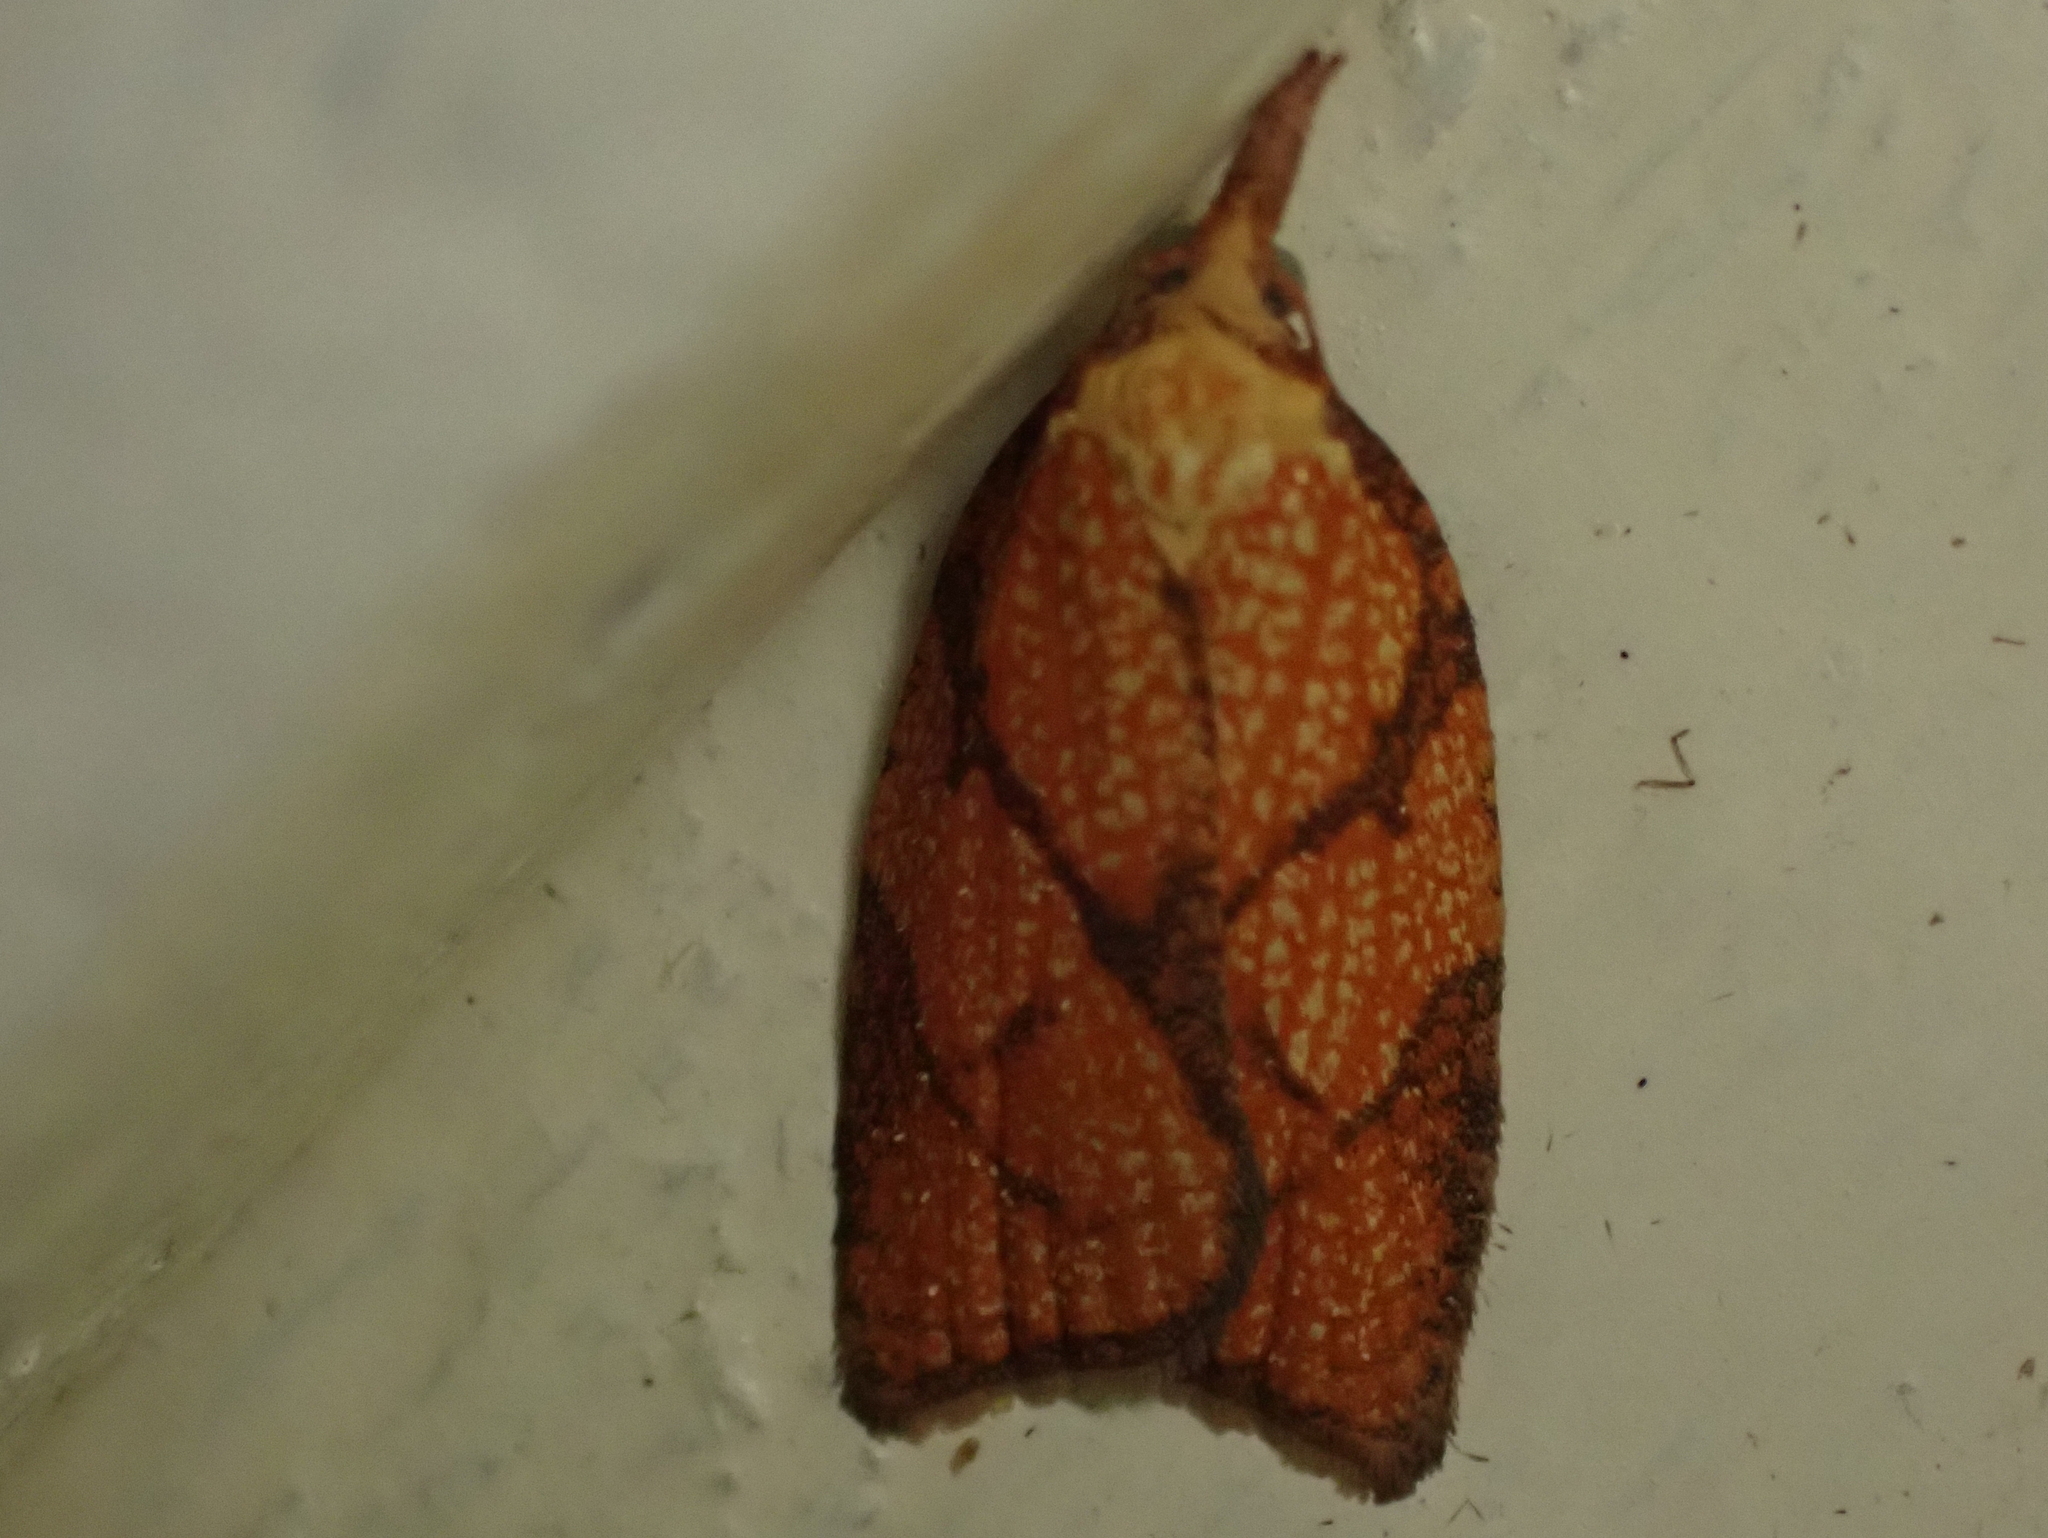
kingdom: Animalia
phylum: Arthropoda
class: Insecta
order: Lepidoptera
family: Tortricidae
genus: Cenopis
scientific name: Cenopis reticulatana
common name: Reticulated fruitworm moth
